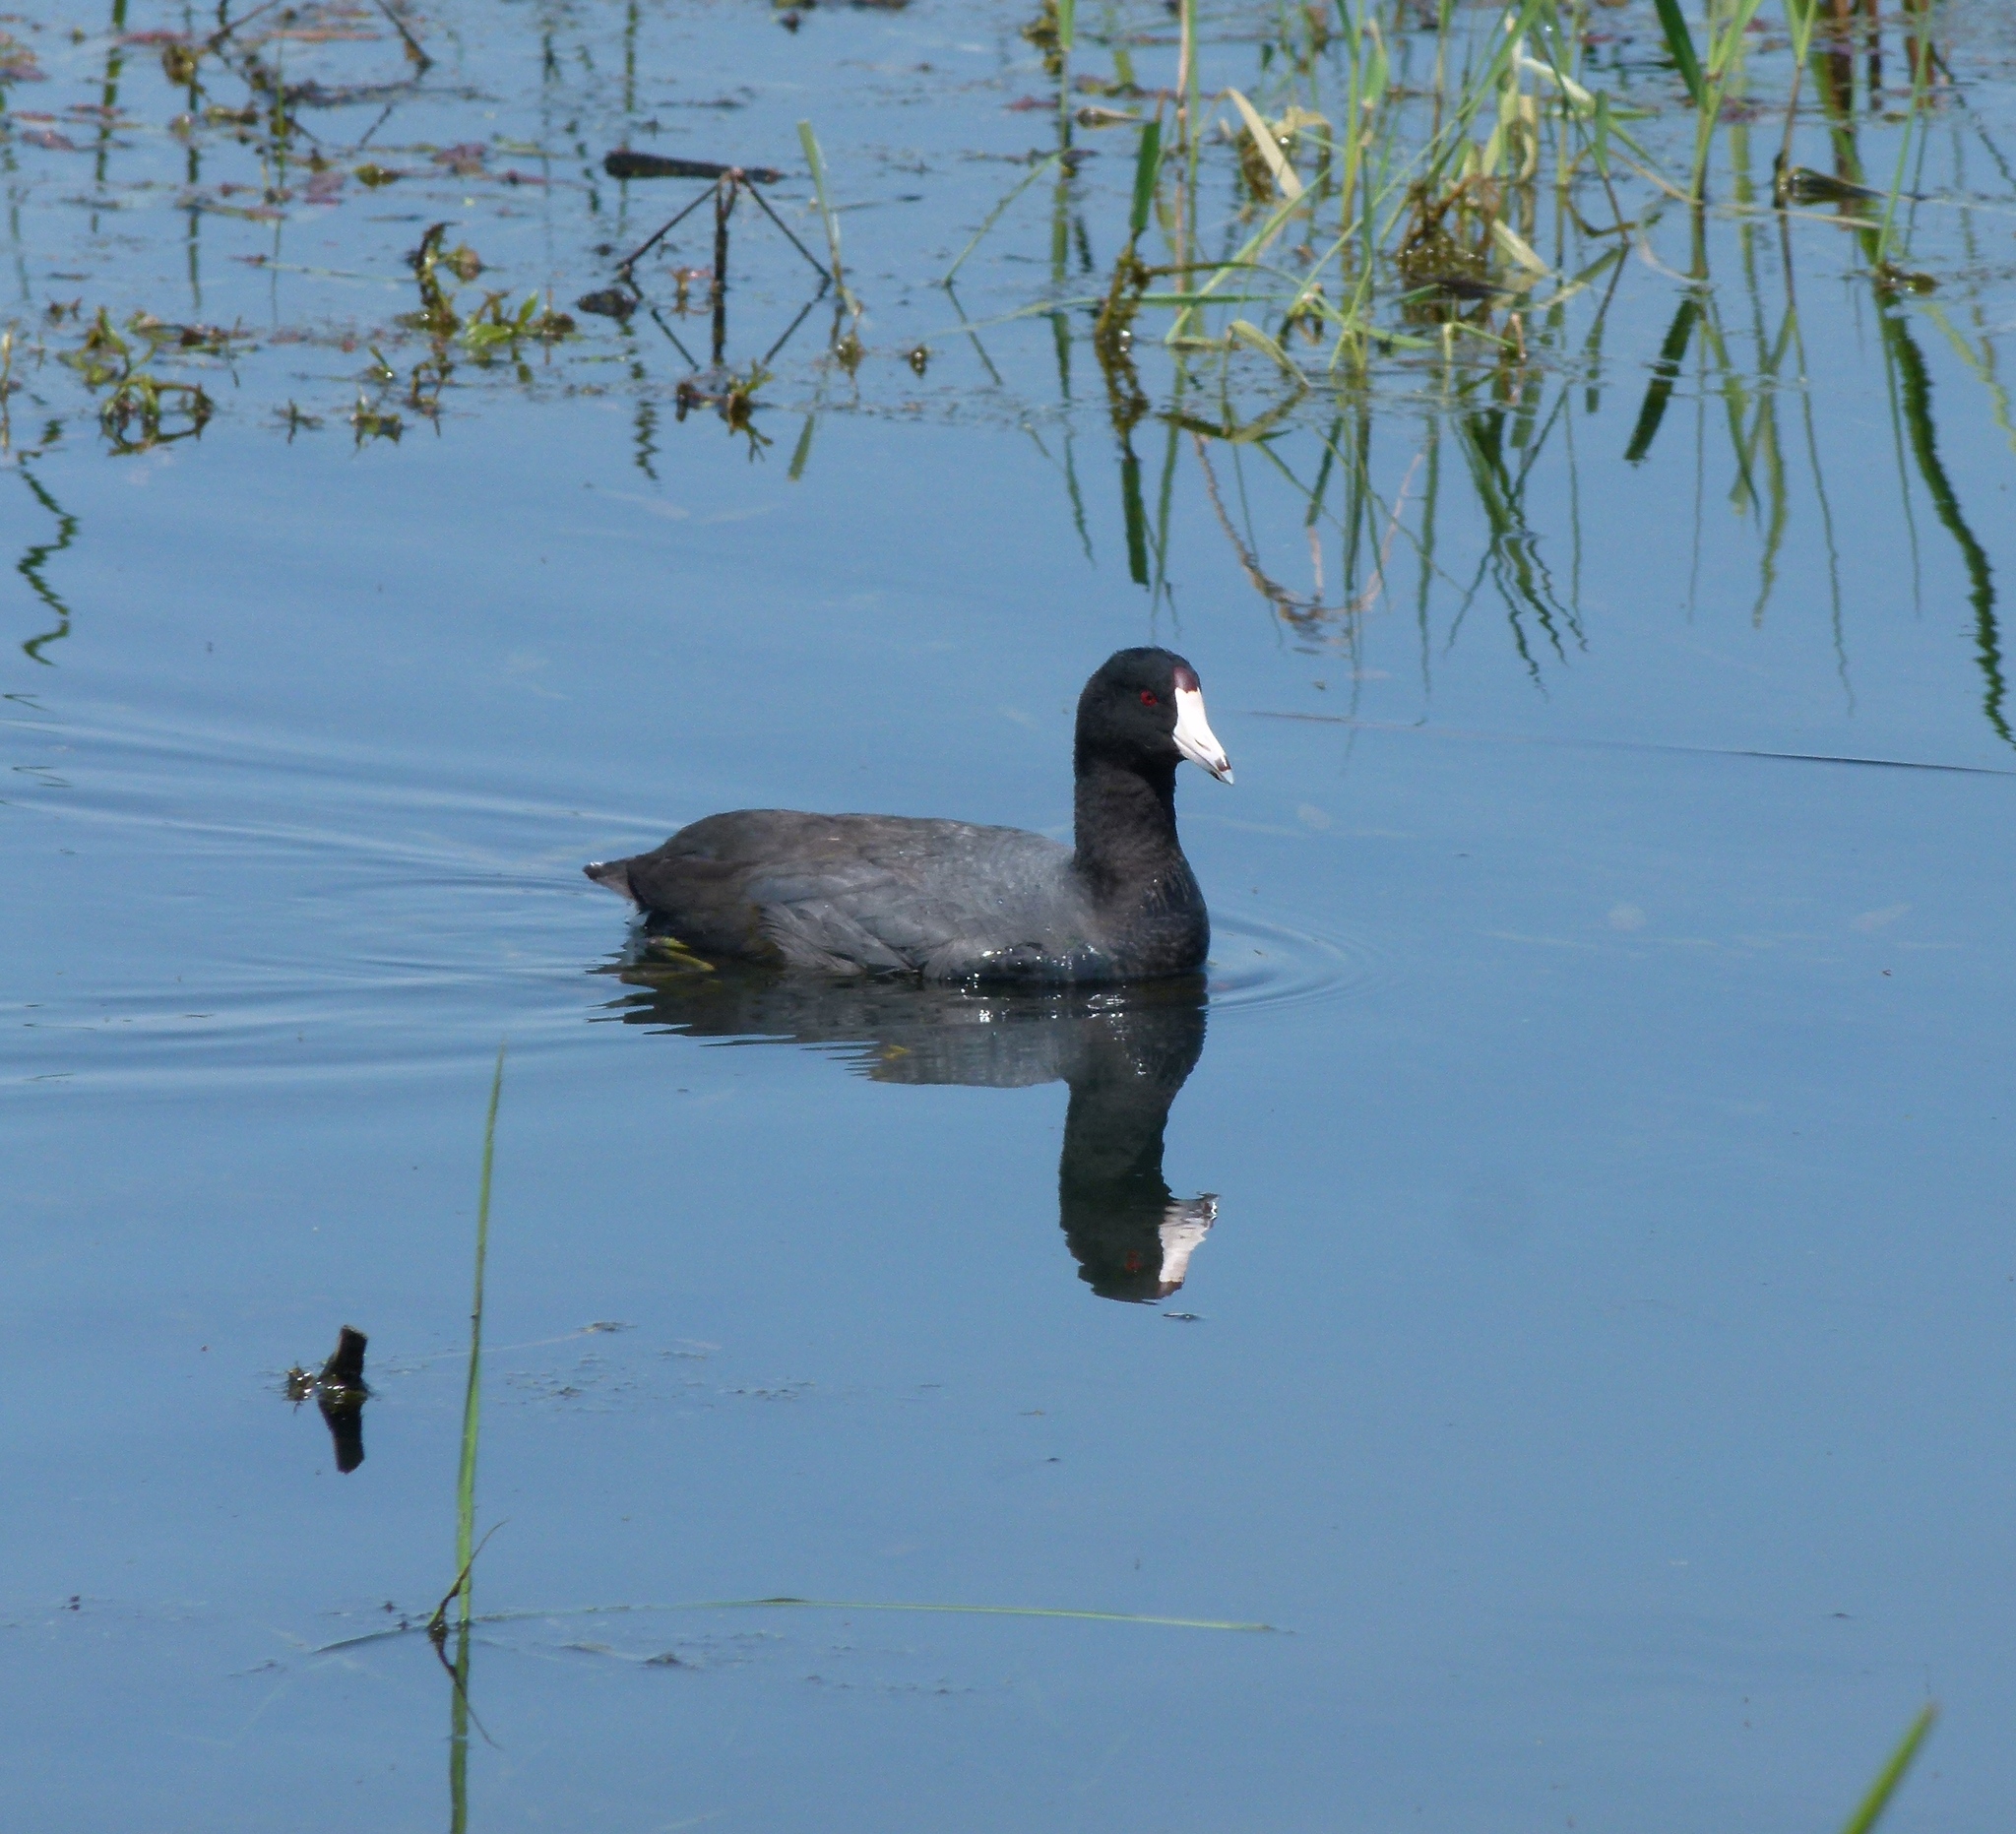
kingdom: Animalia
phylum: Chordata
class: Aves
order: Gruiformes
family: Rallidae
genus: Fulica
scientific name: Fulica americana
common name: American coot
